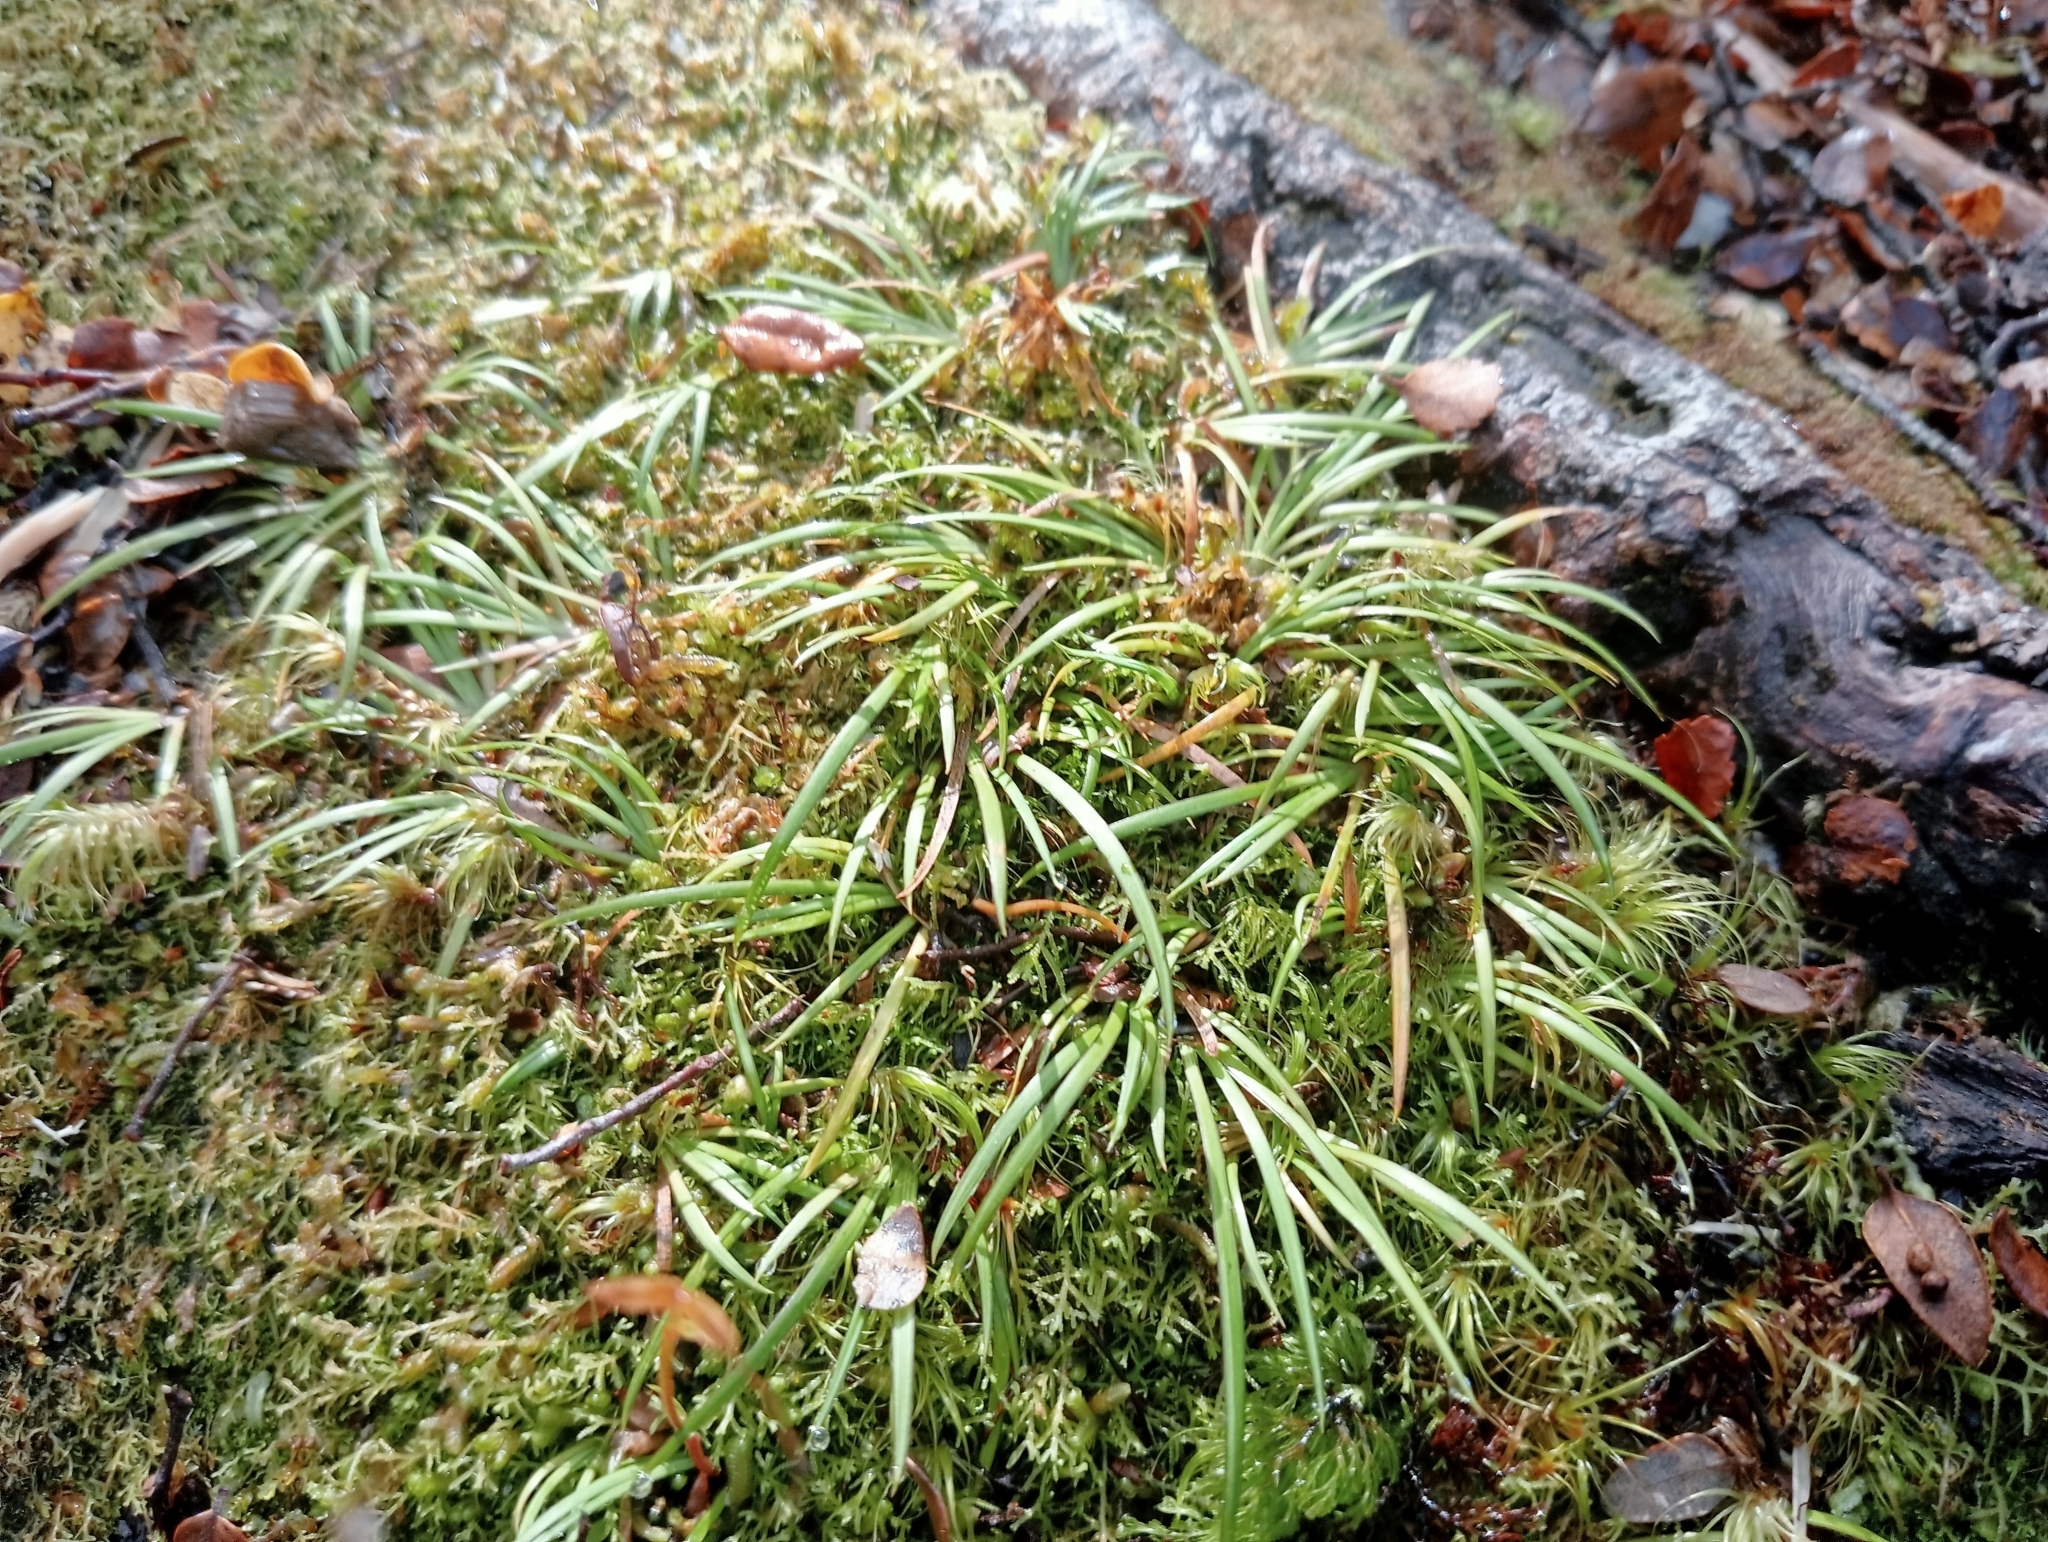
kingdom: Plantae
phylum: Tracheophyta
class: Liliopsida
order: Asparagales
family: Iridaceae
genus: Libertia
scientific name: Libertia micrantha
